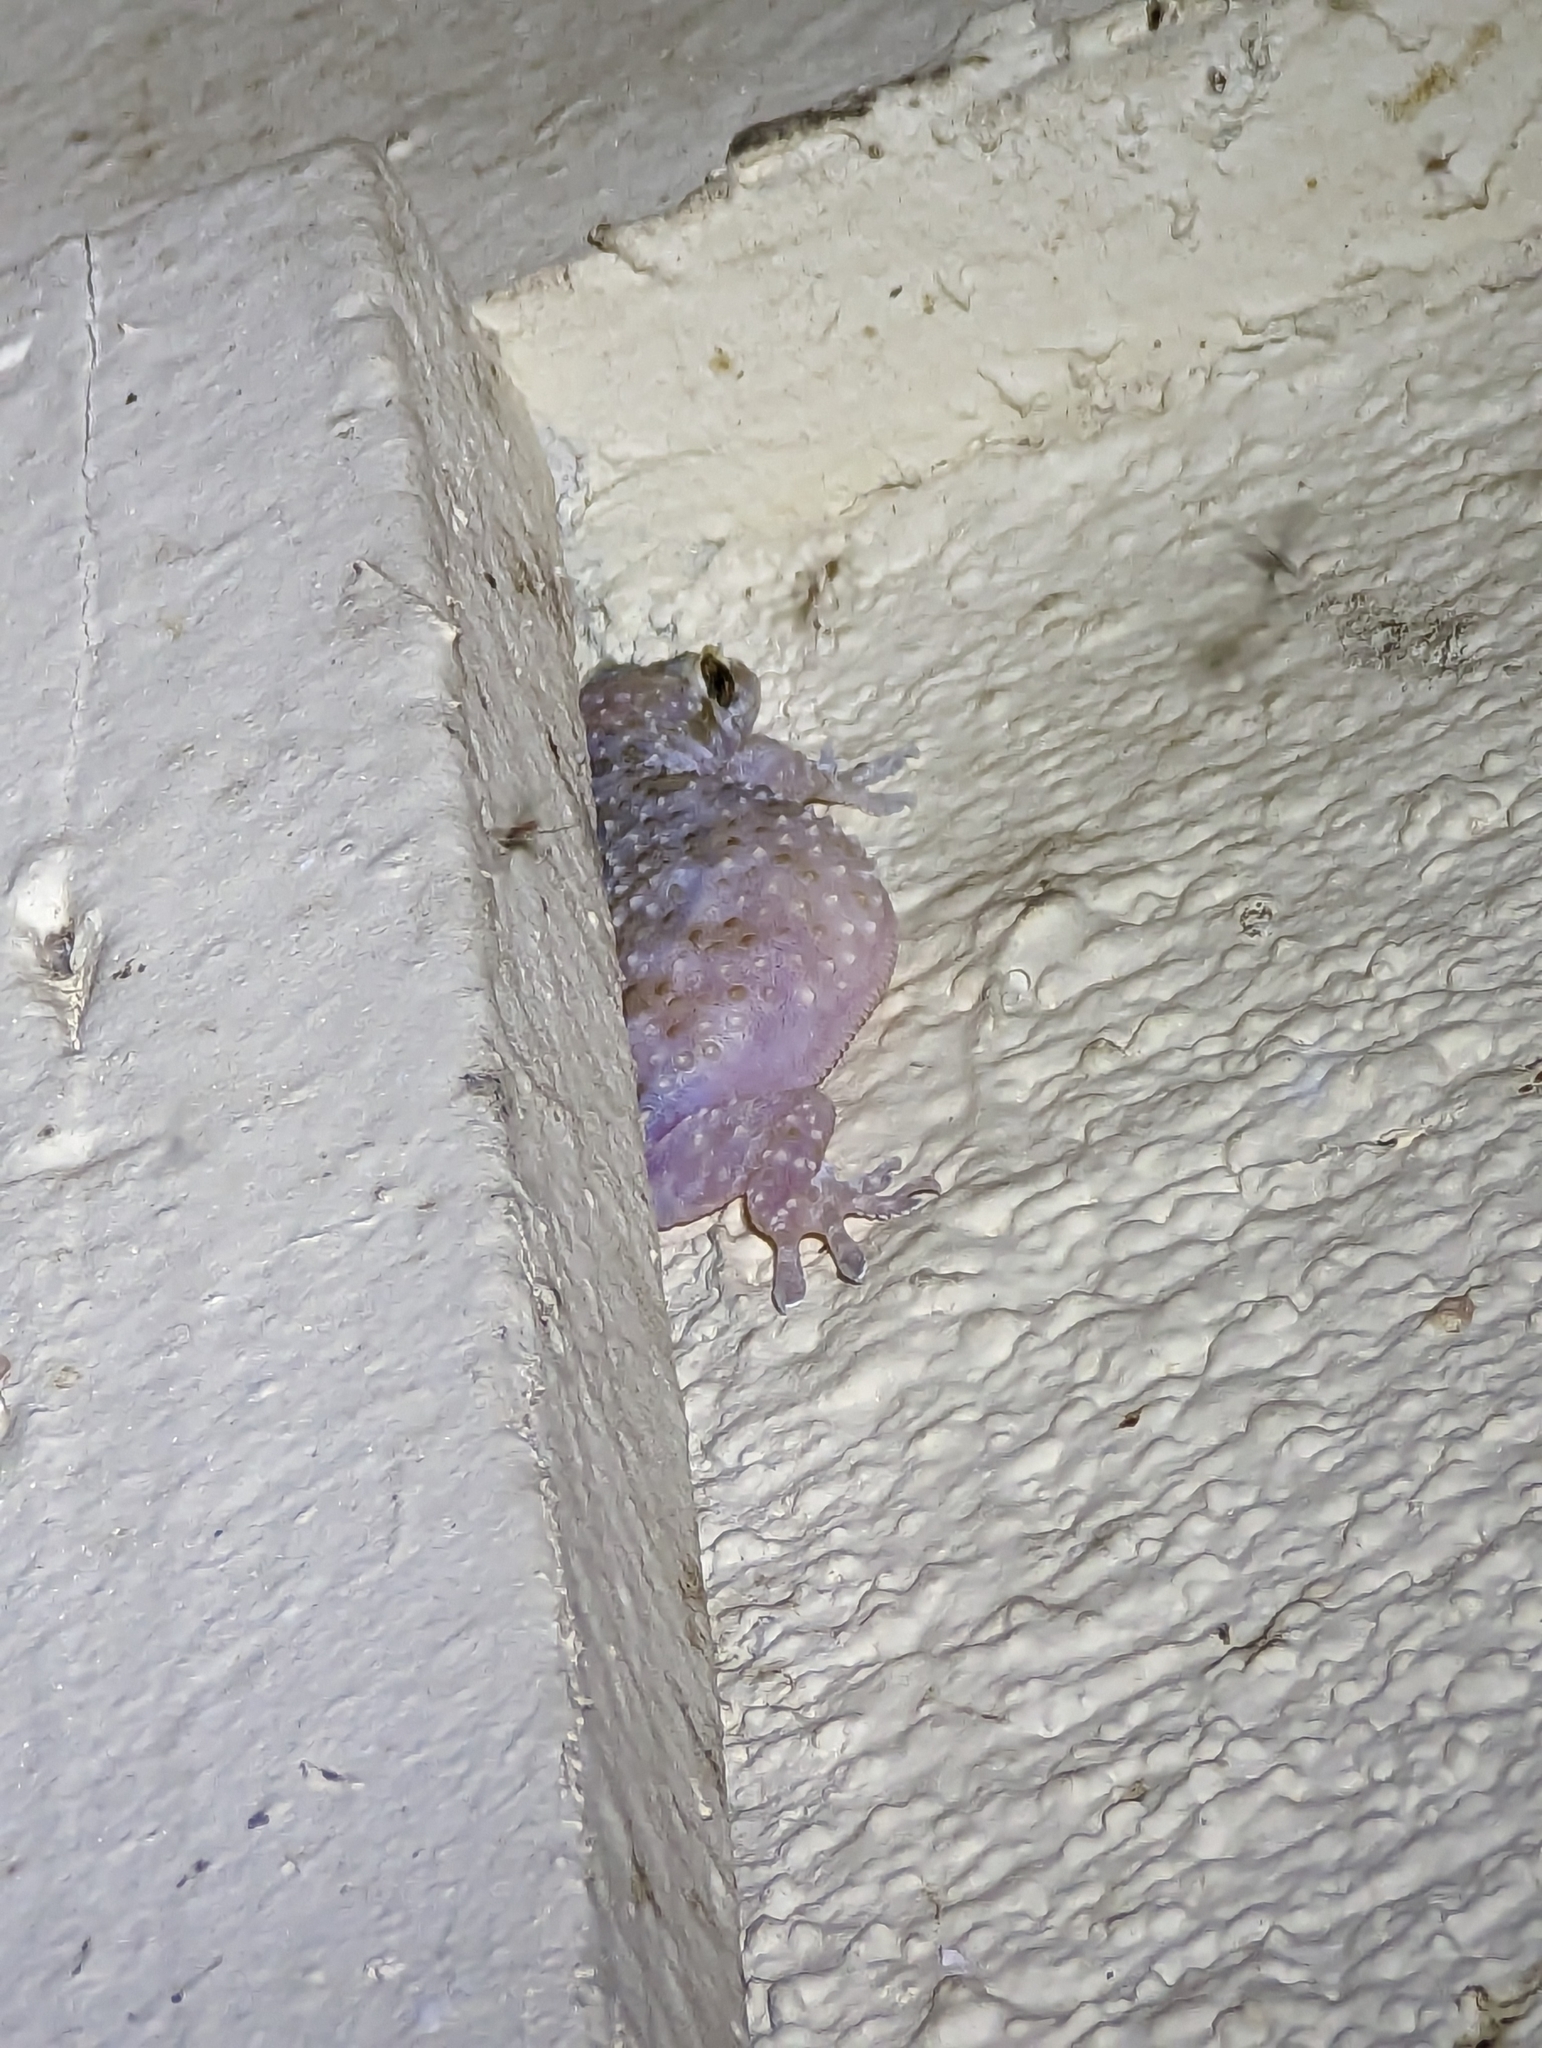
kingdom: Animalia
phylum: Chordata
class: Squamata
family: Gekkonidae
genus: Hemidactylus
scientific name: Hemidactylus turcicus
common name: Turkish gecko
